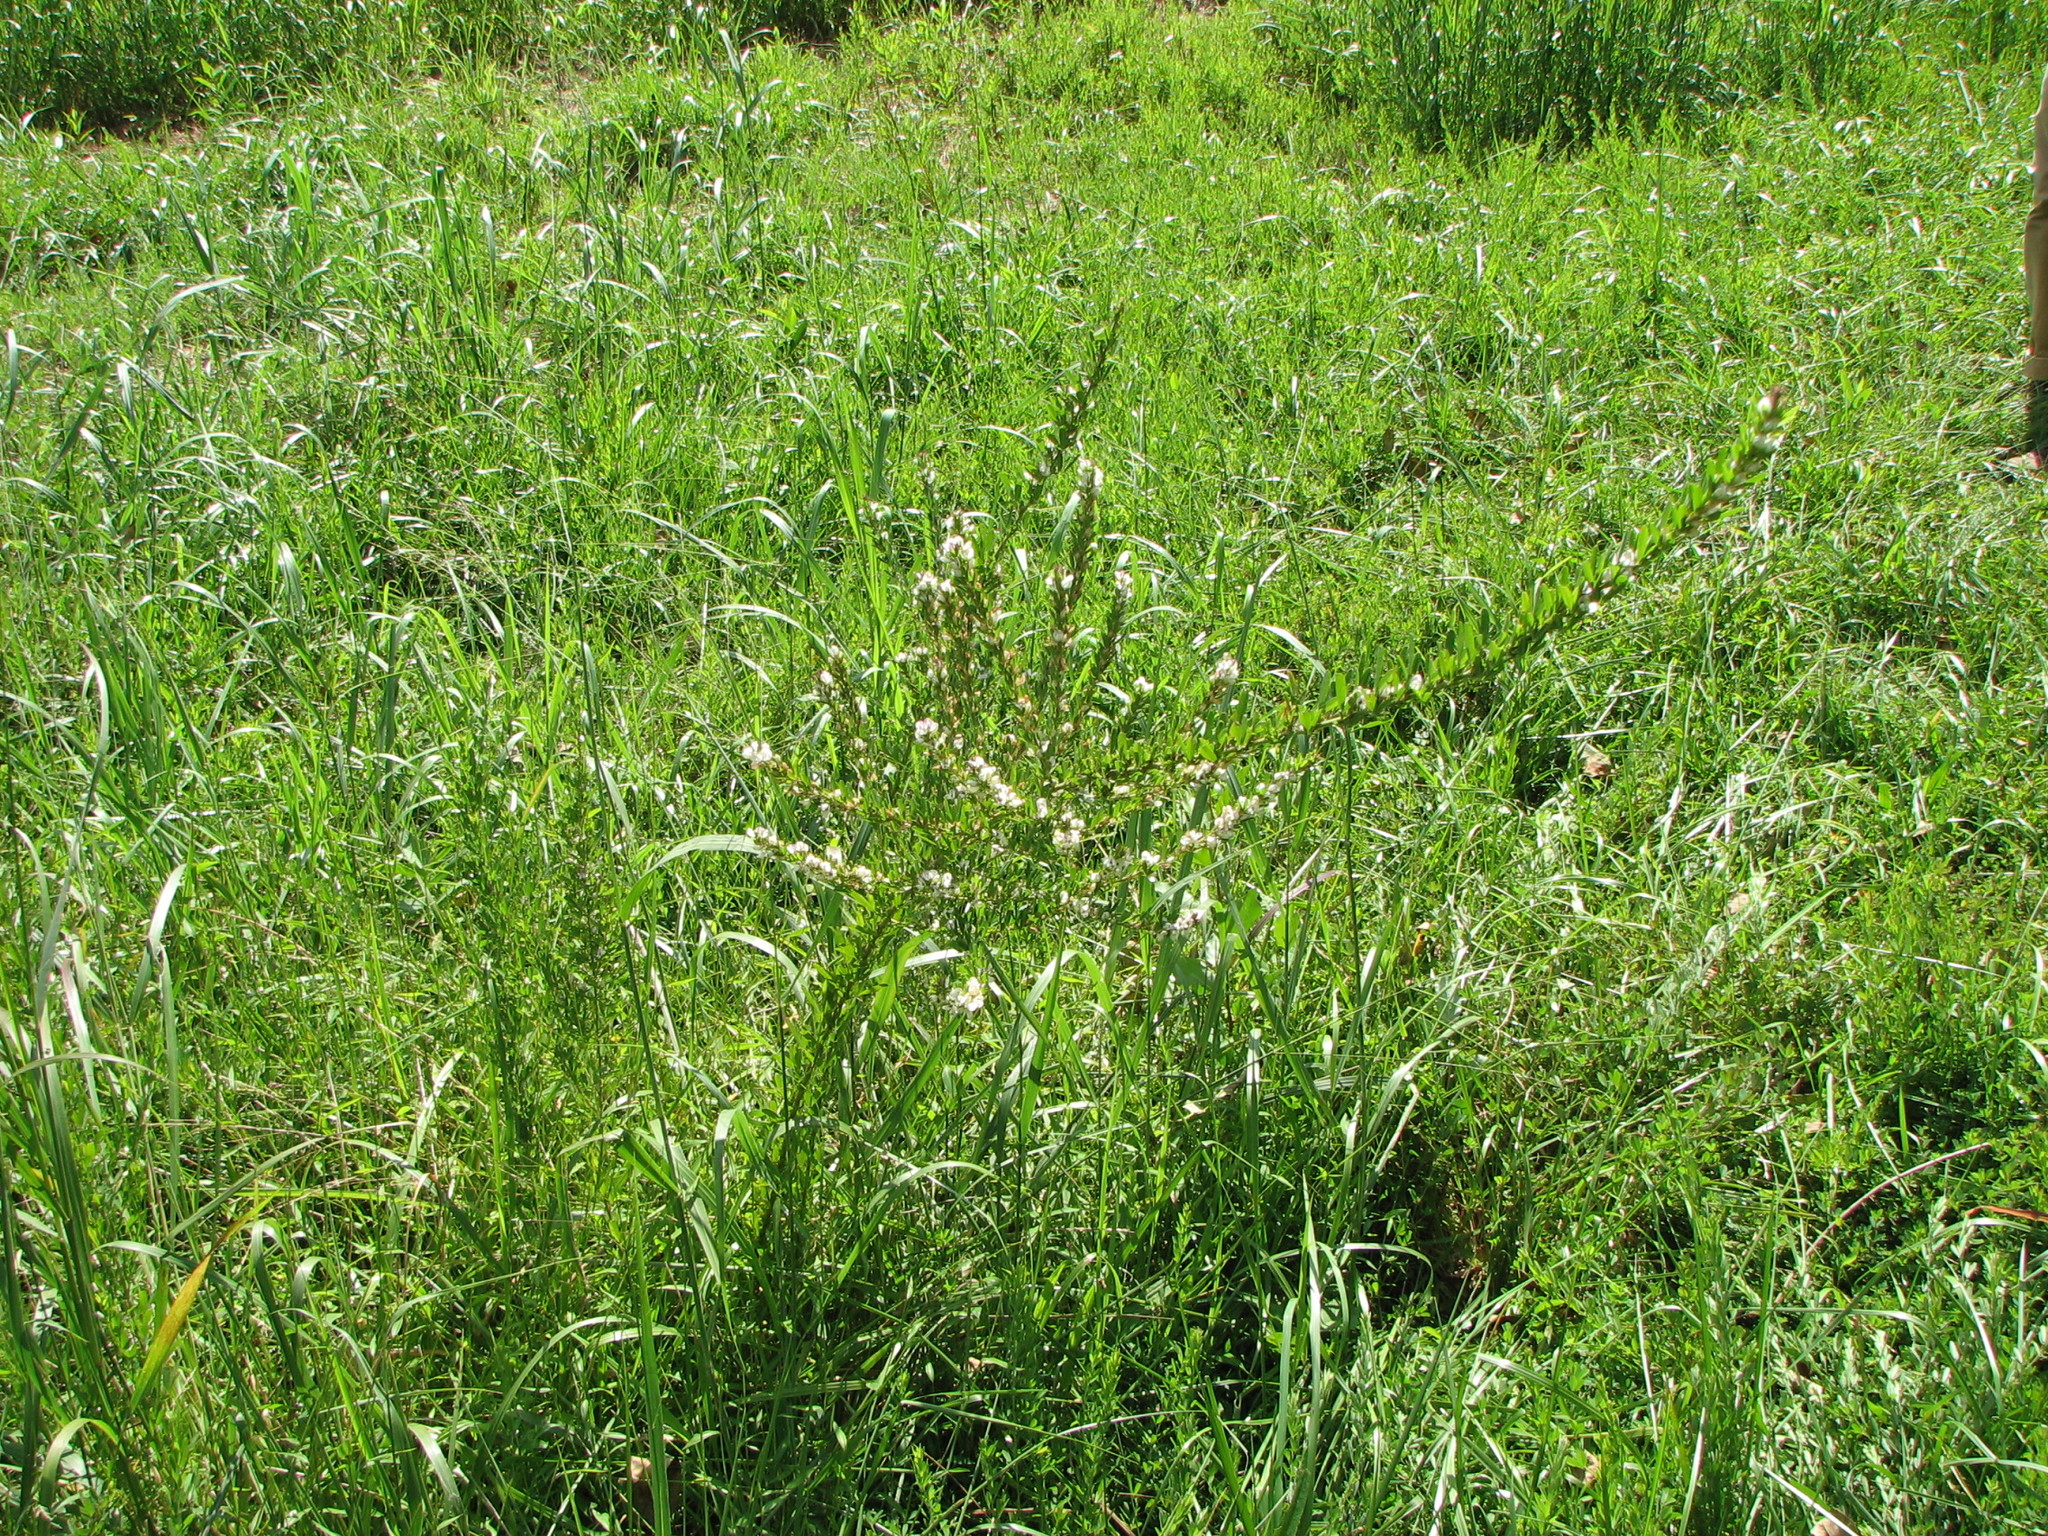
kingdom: Plantae
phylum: Tracheophyta
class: Magnoliopsida
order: Fabales
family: Fabaceae
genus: Lespedeza
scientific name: Lespedeza cuneata
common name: Chinese bush-clover
